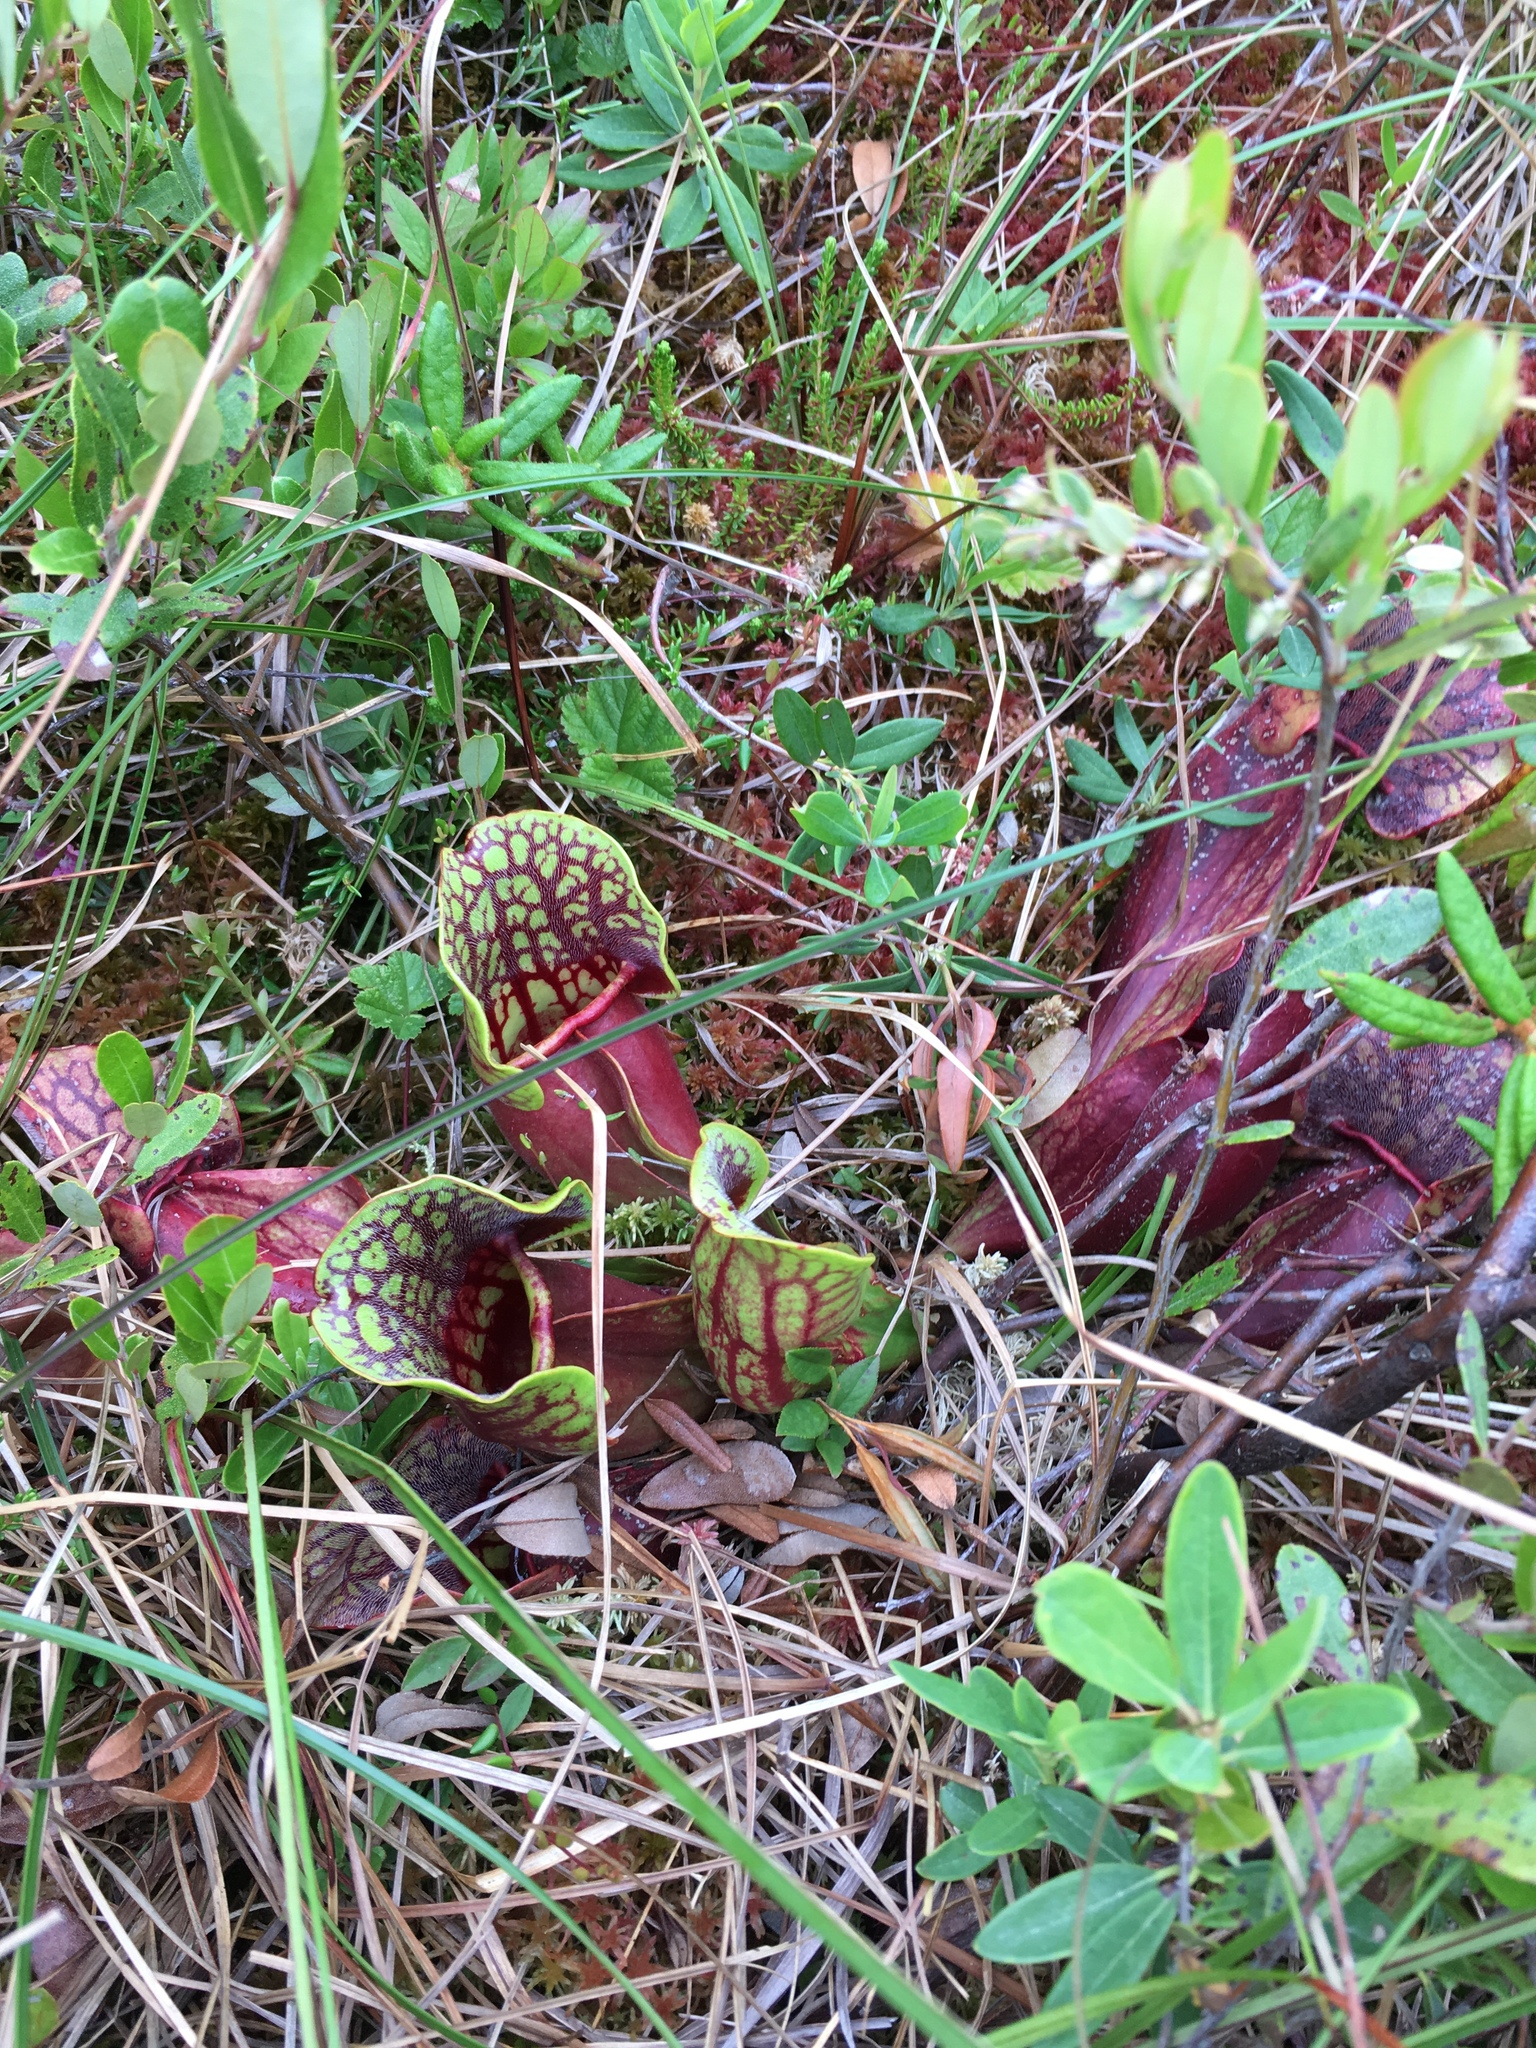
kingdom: Plantae
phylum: Tracheophyta
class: Magnoliopsida
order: Ericales
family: Sarraceniaceae
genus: Sarracenia
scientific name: Sarracenia purpurea
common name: Pitcherplant
